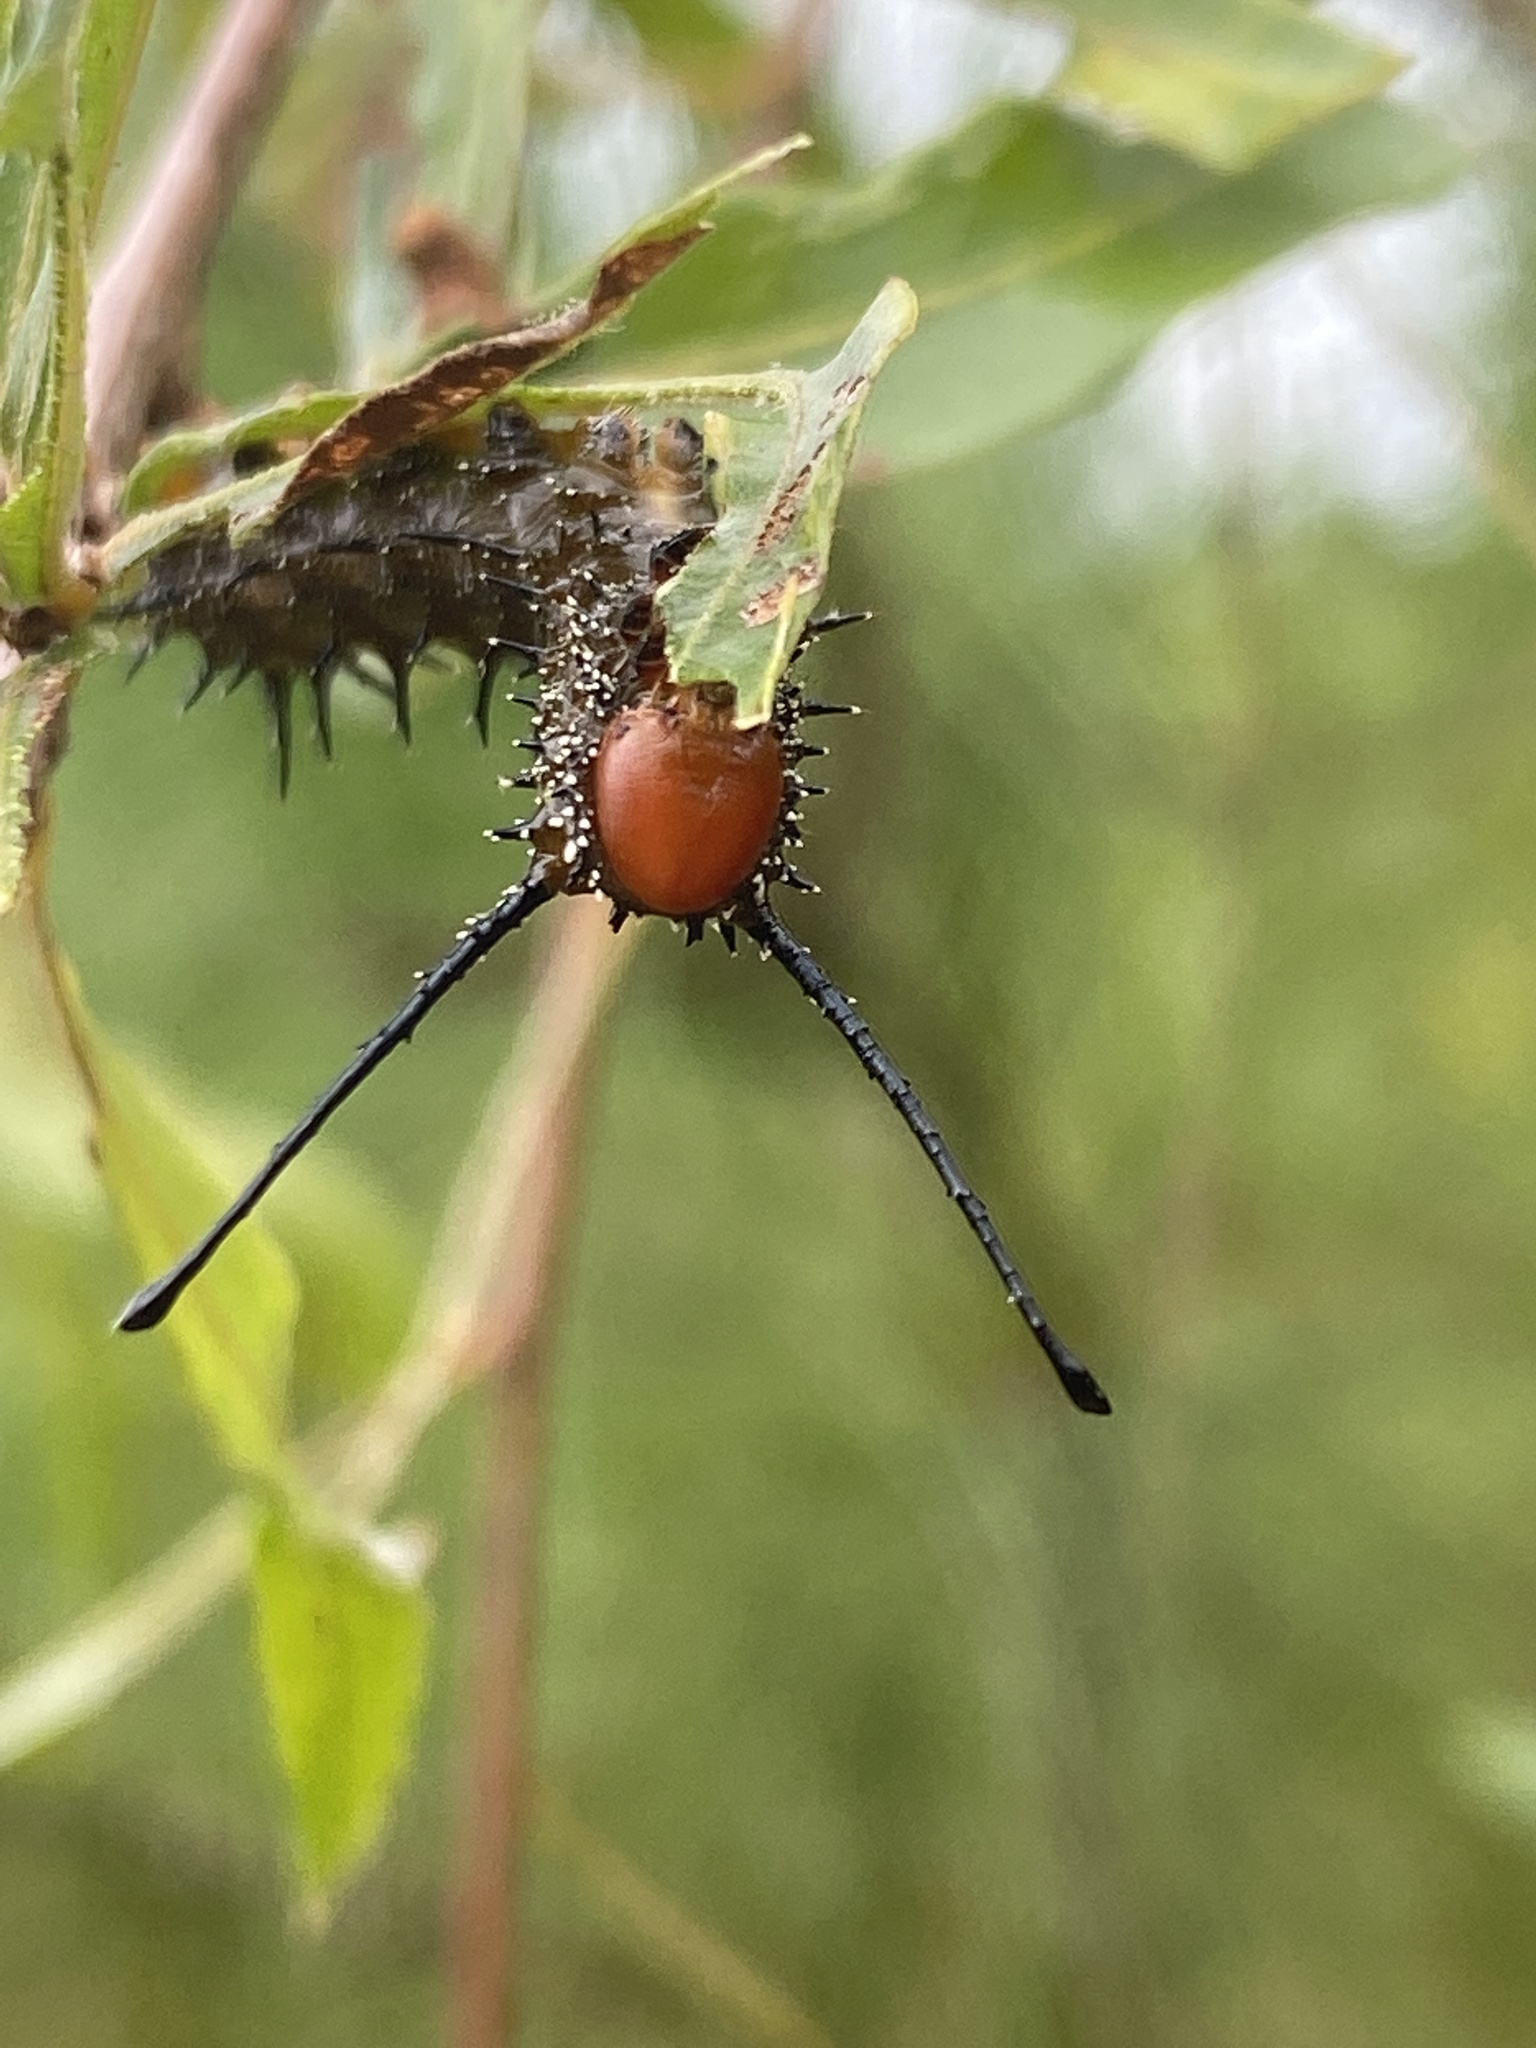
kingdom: Animalia
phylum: Arthropoda
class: Insecta
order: Lepidoptera
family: Saturniidae
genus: Anisota
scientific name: Anisota stigma
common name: Spiny oakworm moth
